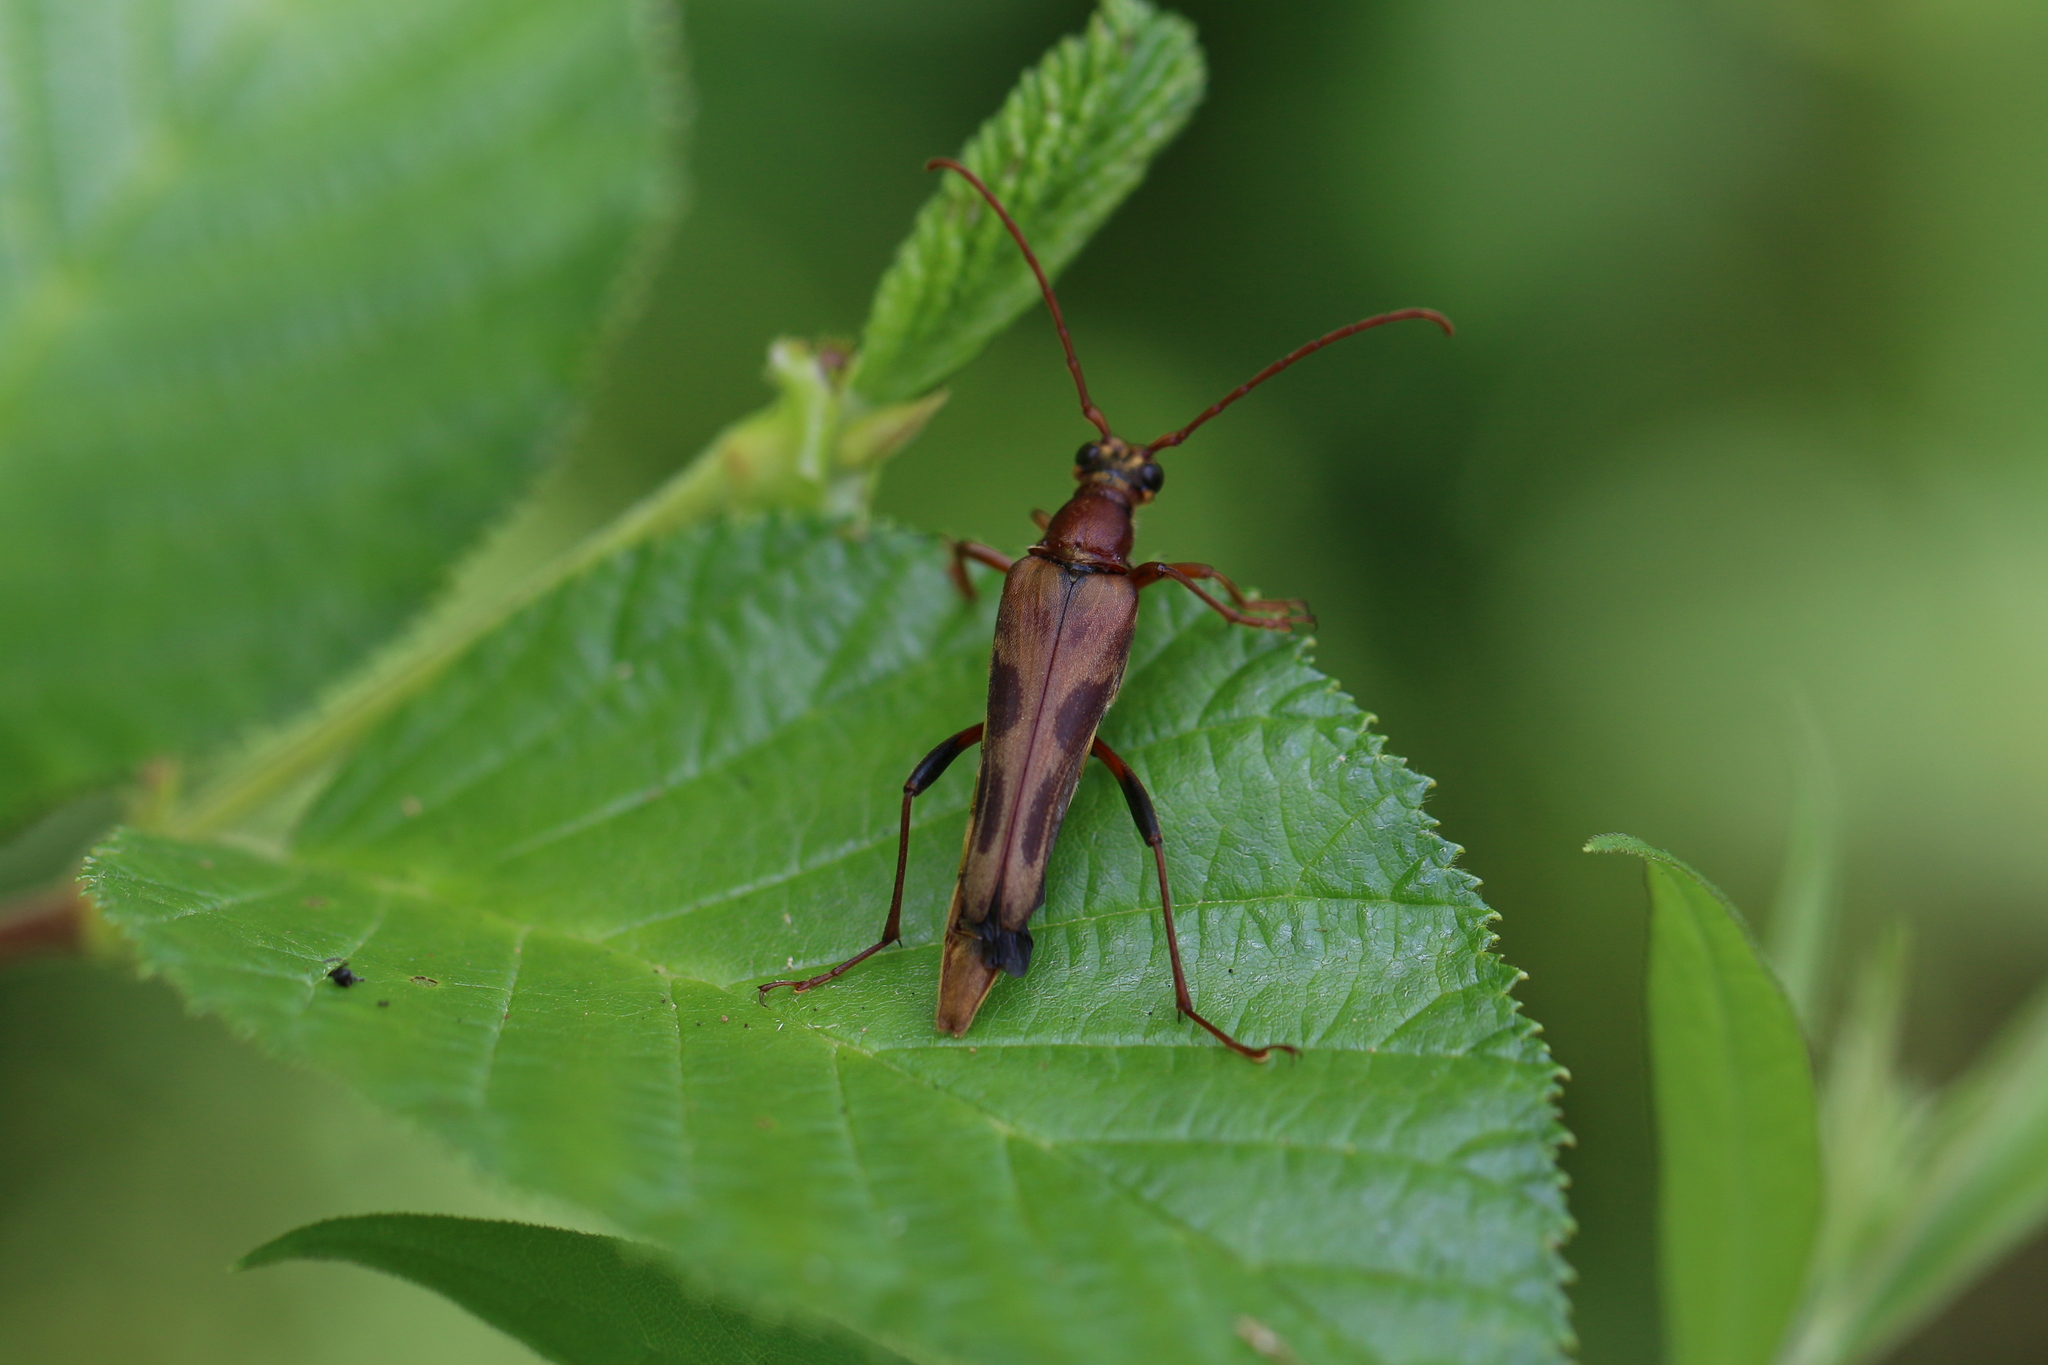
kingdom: Animalia
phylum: Arthropoda
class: Insecta
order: Coleoptera
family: Cerambycidae
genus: Bellamira
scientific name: Bellamira scalaris
